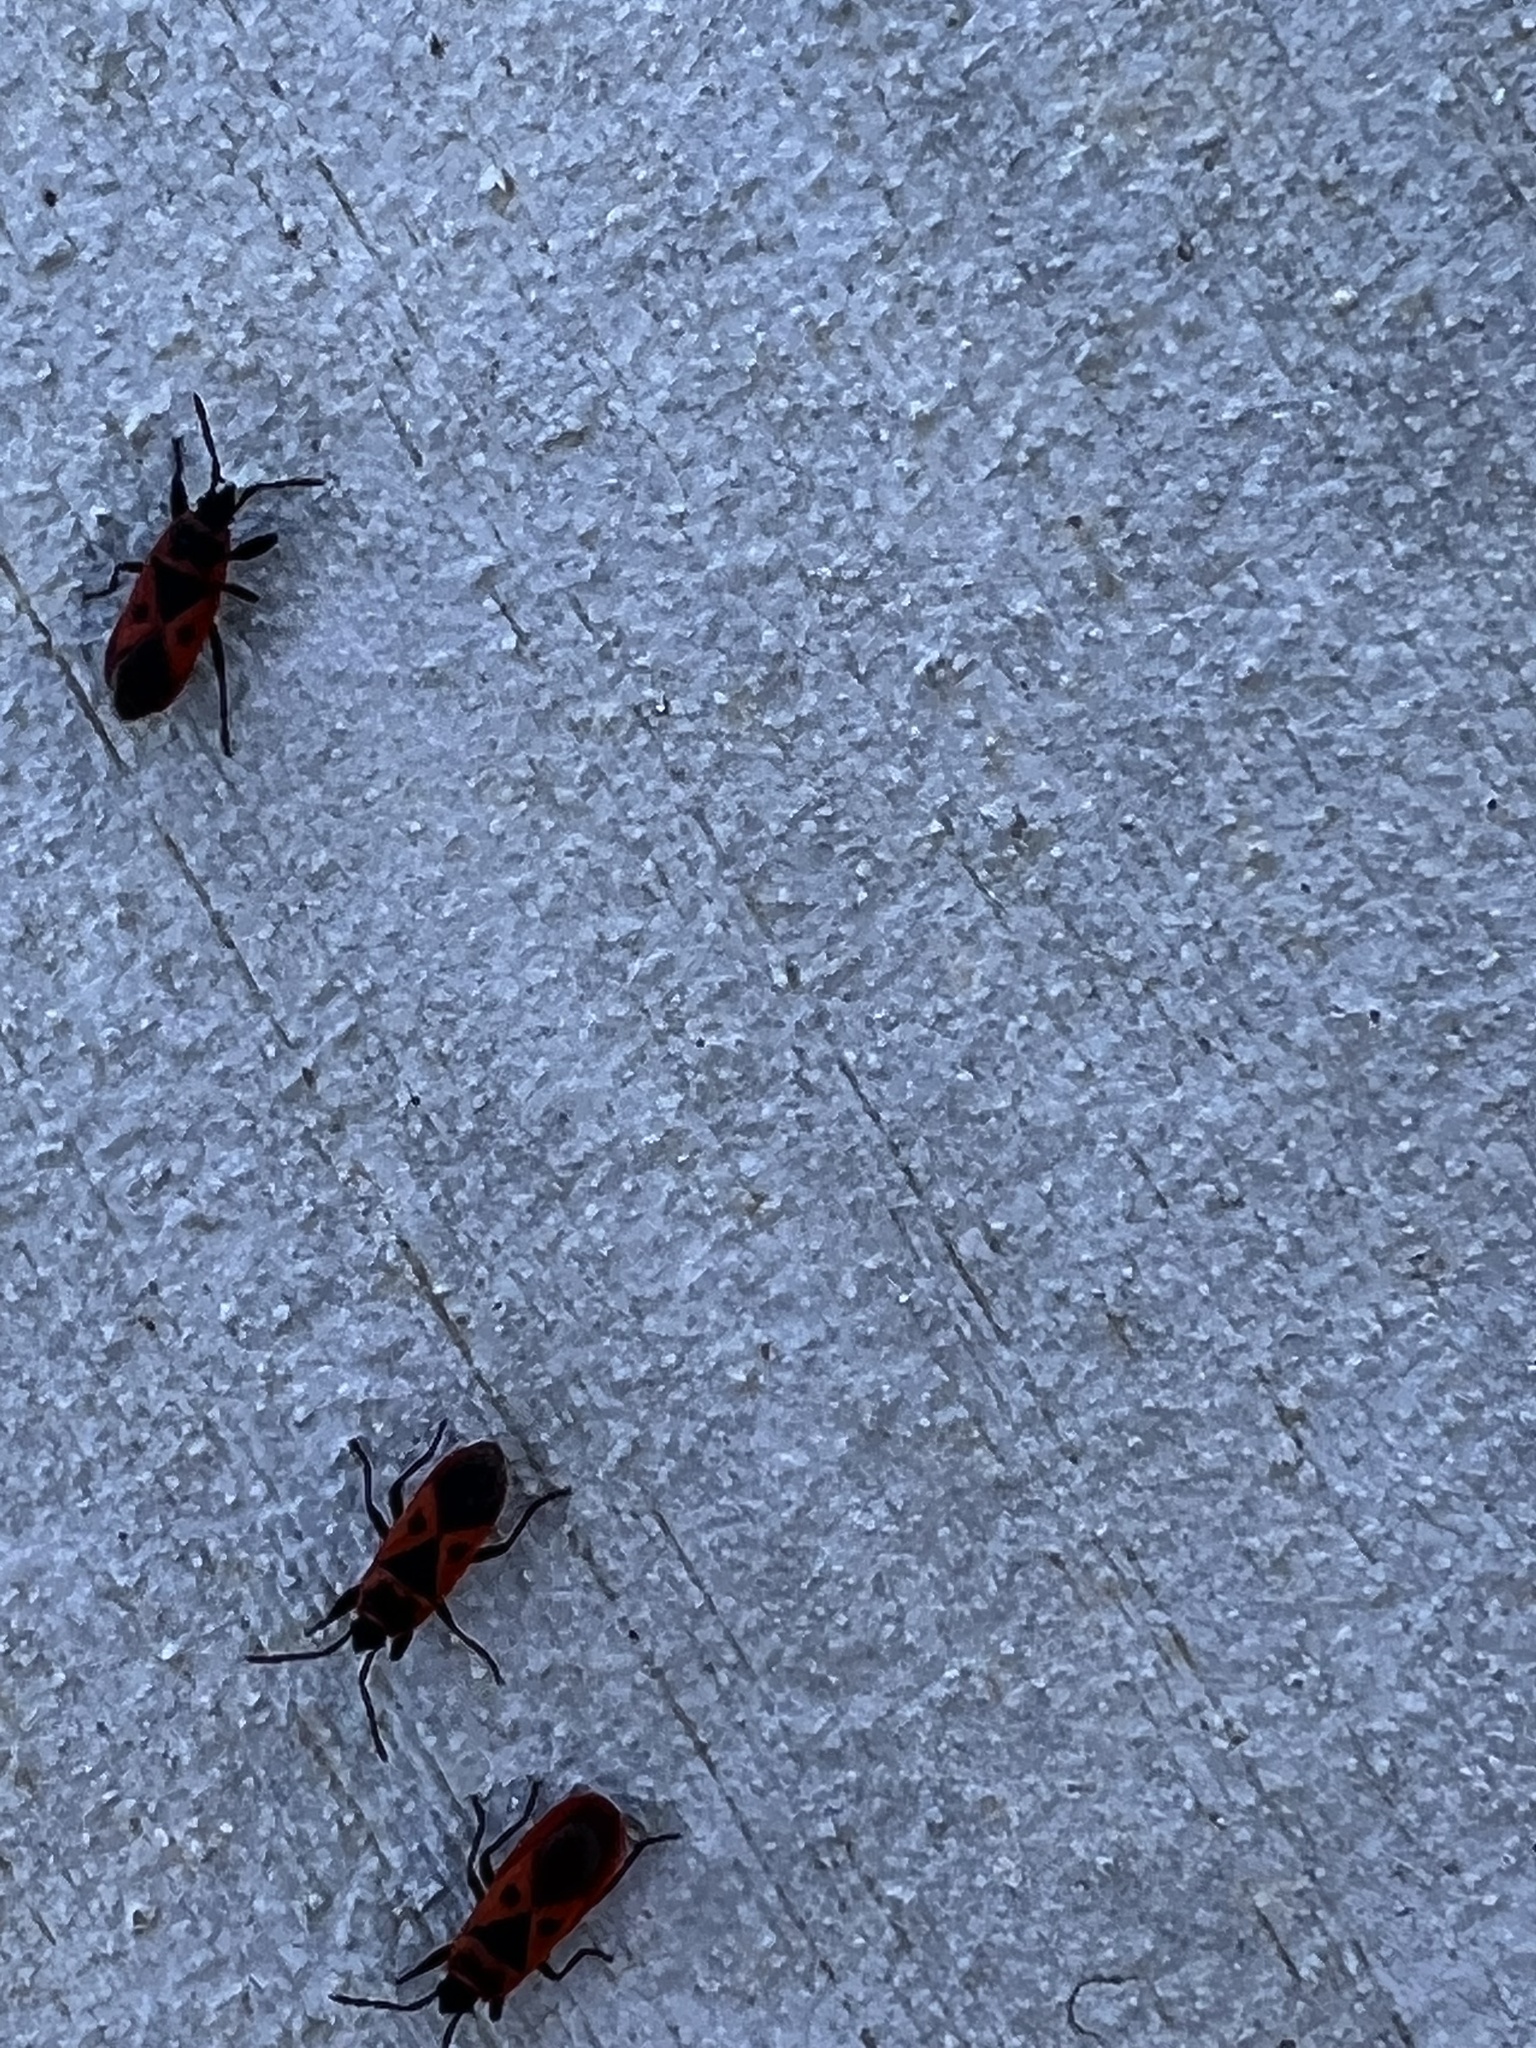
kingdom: Animalia
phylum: Arthropoda
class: Insecta
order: Hemiptera
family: Pyrrhocoridae
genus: Scantius
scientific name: Scantius aegyptius
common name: Red bug
